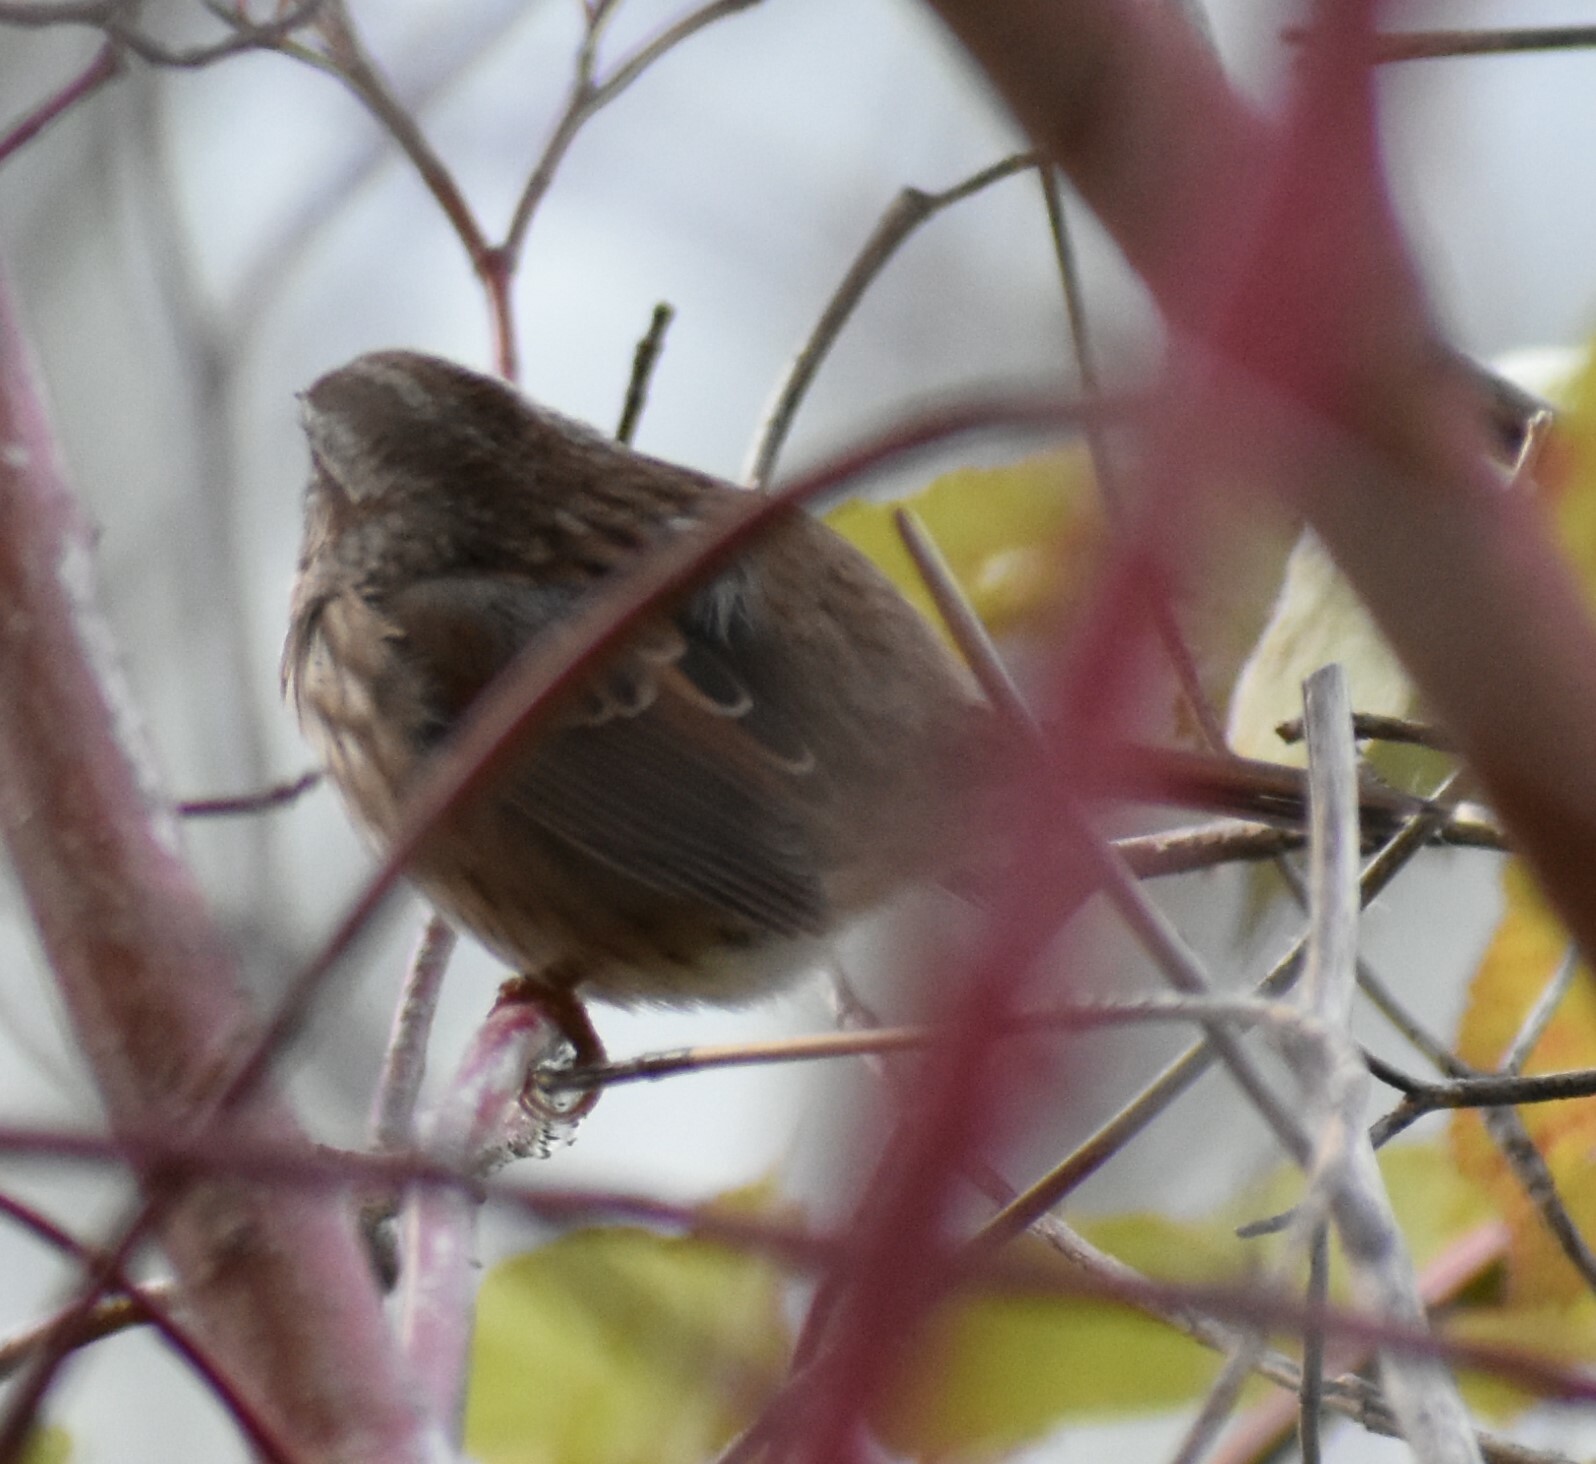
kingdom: Animalia
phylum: Chordata
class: Aves
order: Passeriformes
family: Passerellidae
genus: Melospiza
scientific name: Melospiza melodia
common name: Song sparrow
